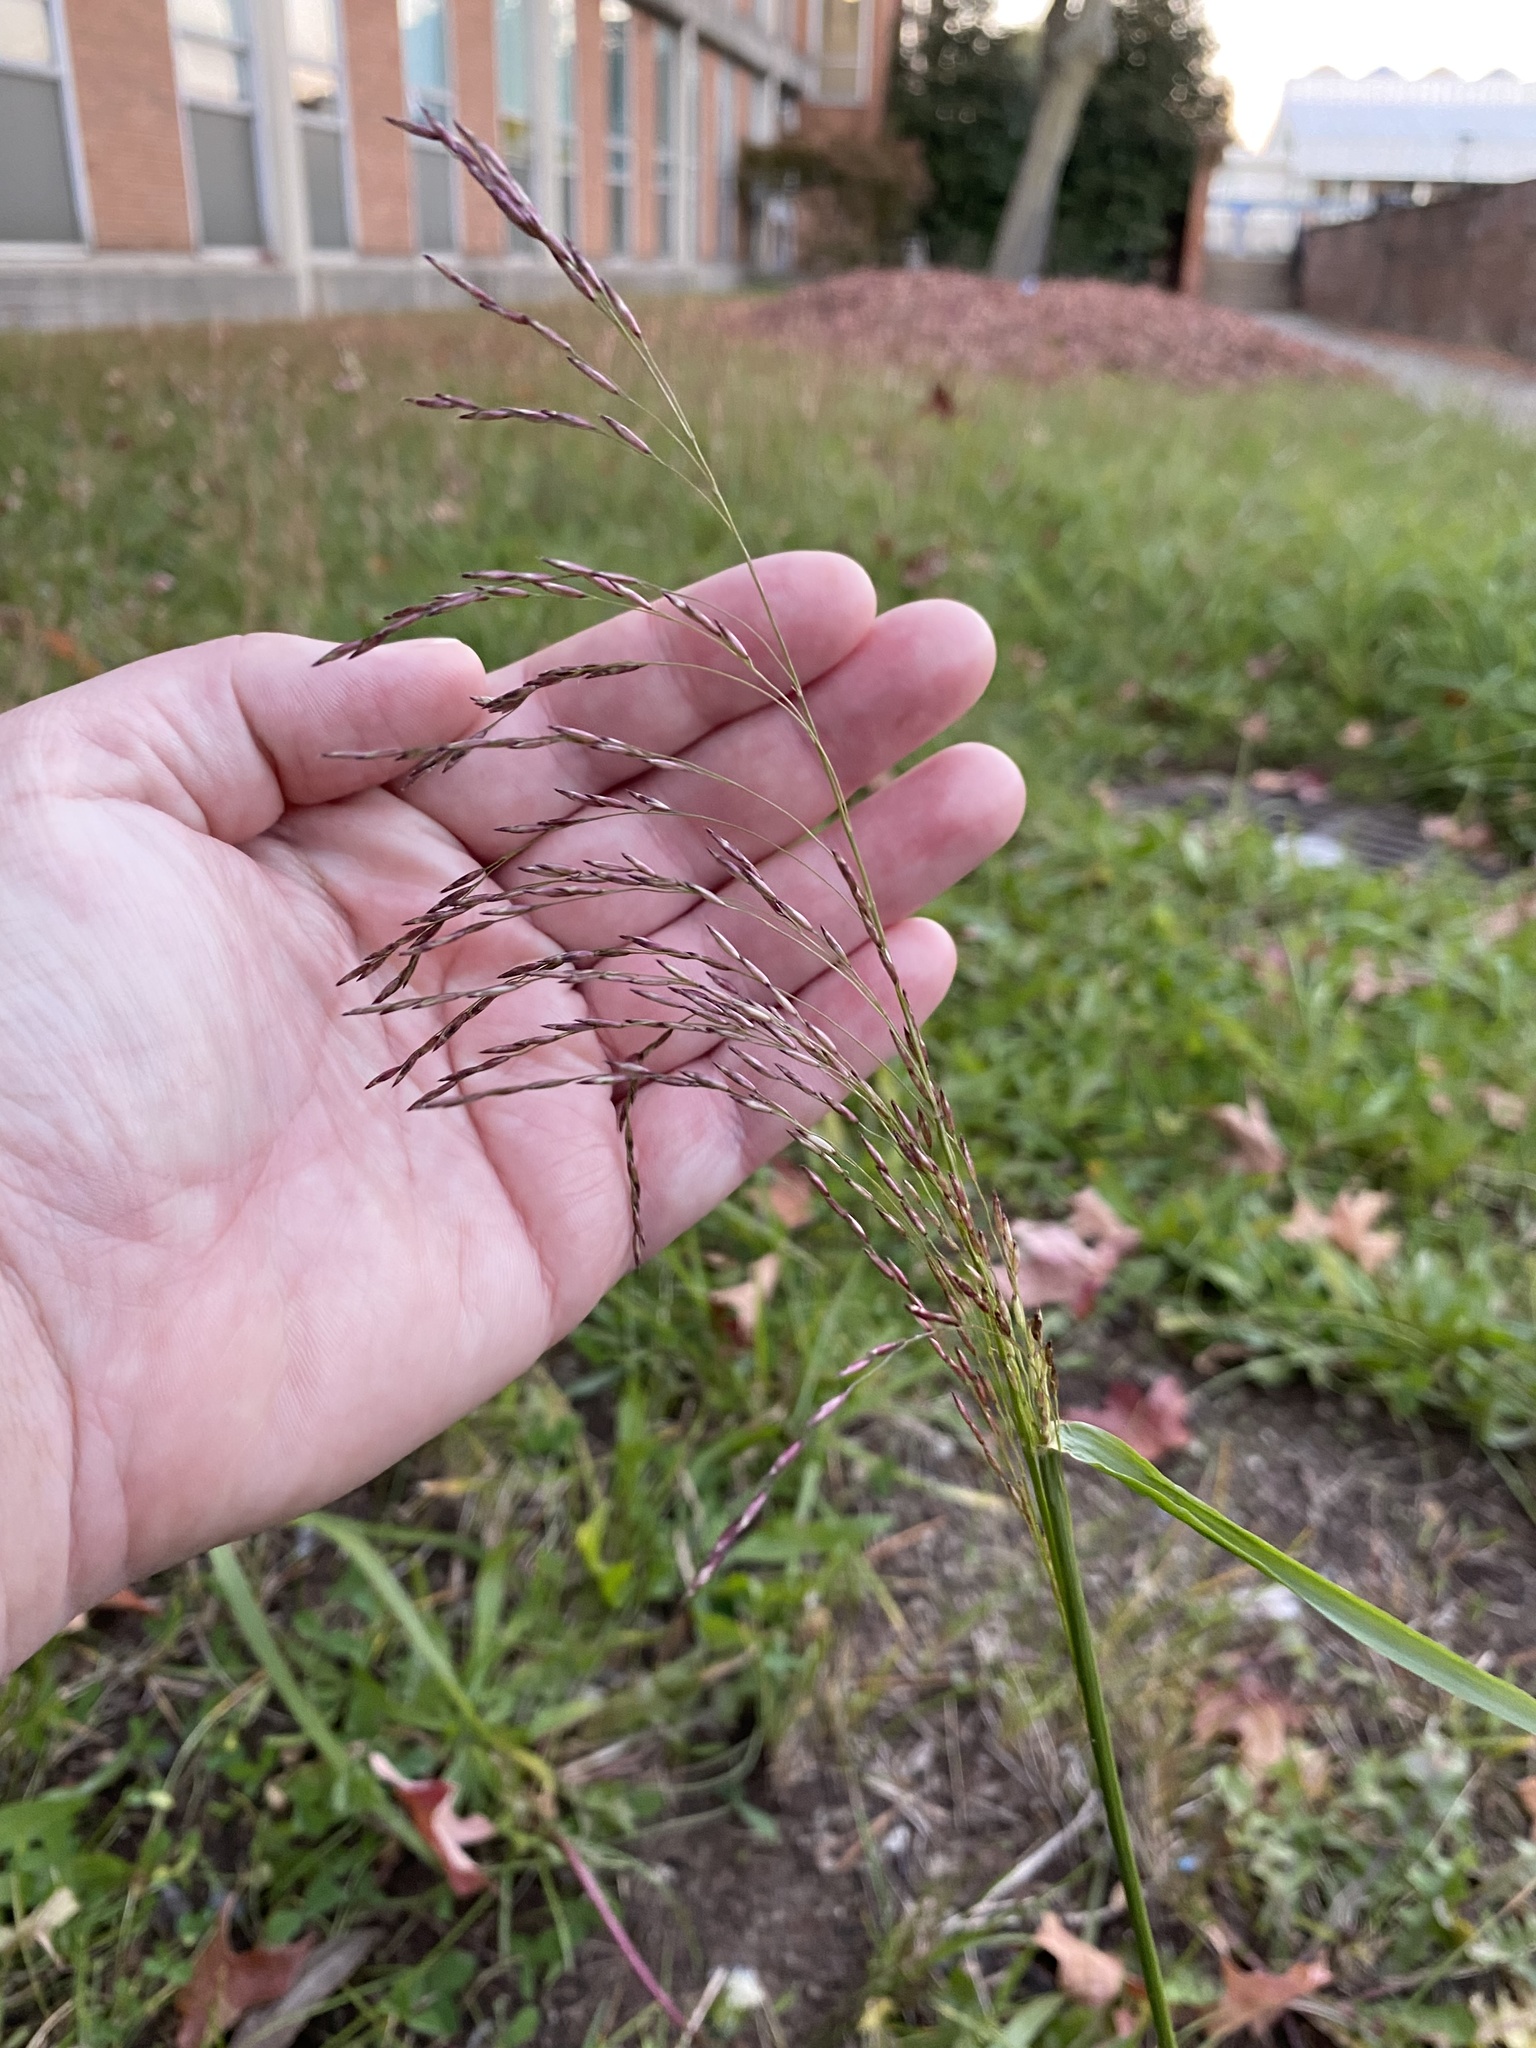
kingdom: Plantae
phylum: Tracheophyta
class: Liliopsida
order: Poales
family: Poaceae
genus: Tridens
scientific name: Tridens flavus
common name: Purpletop
